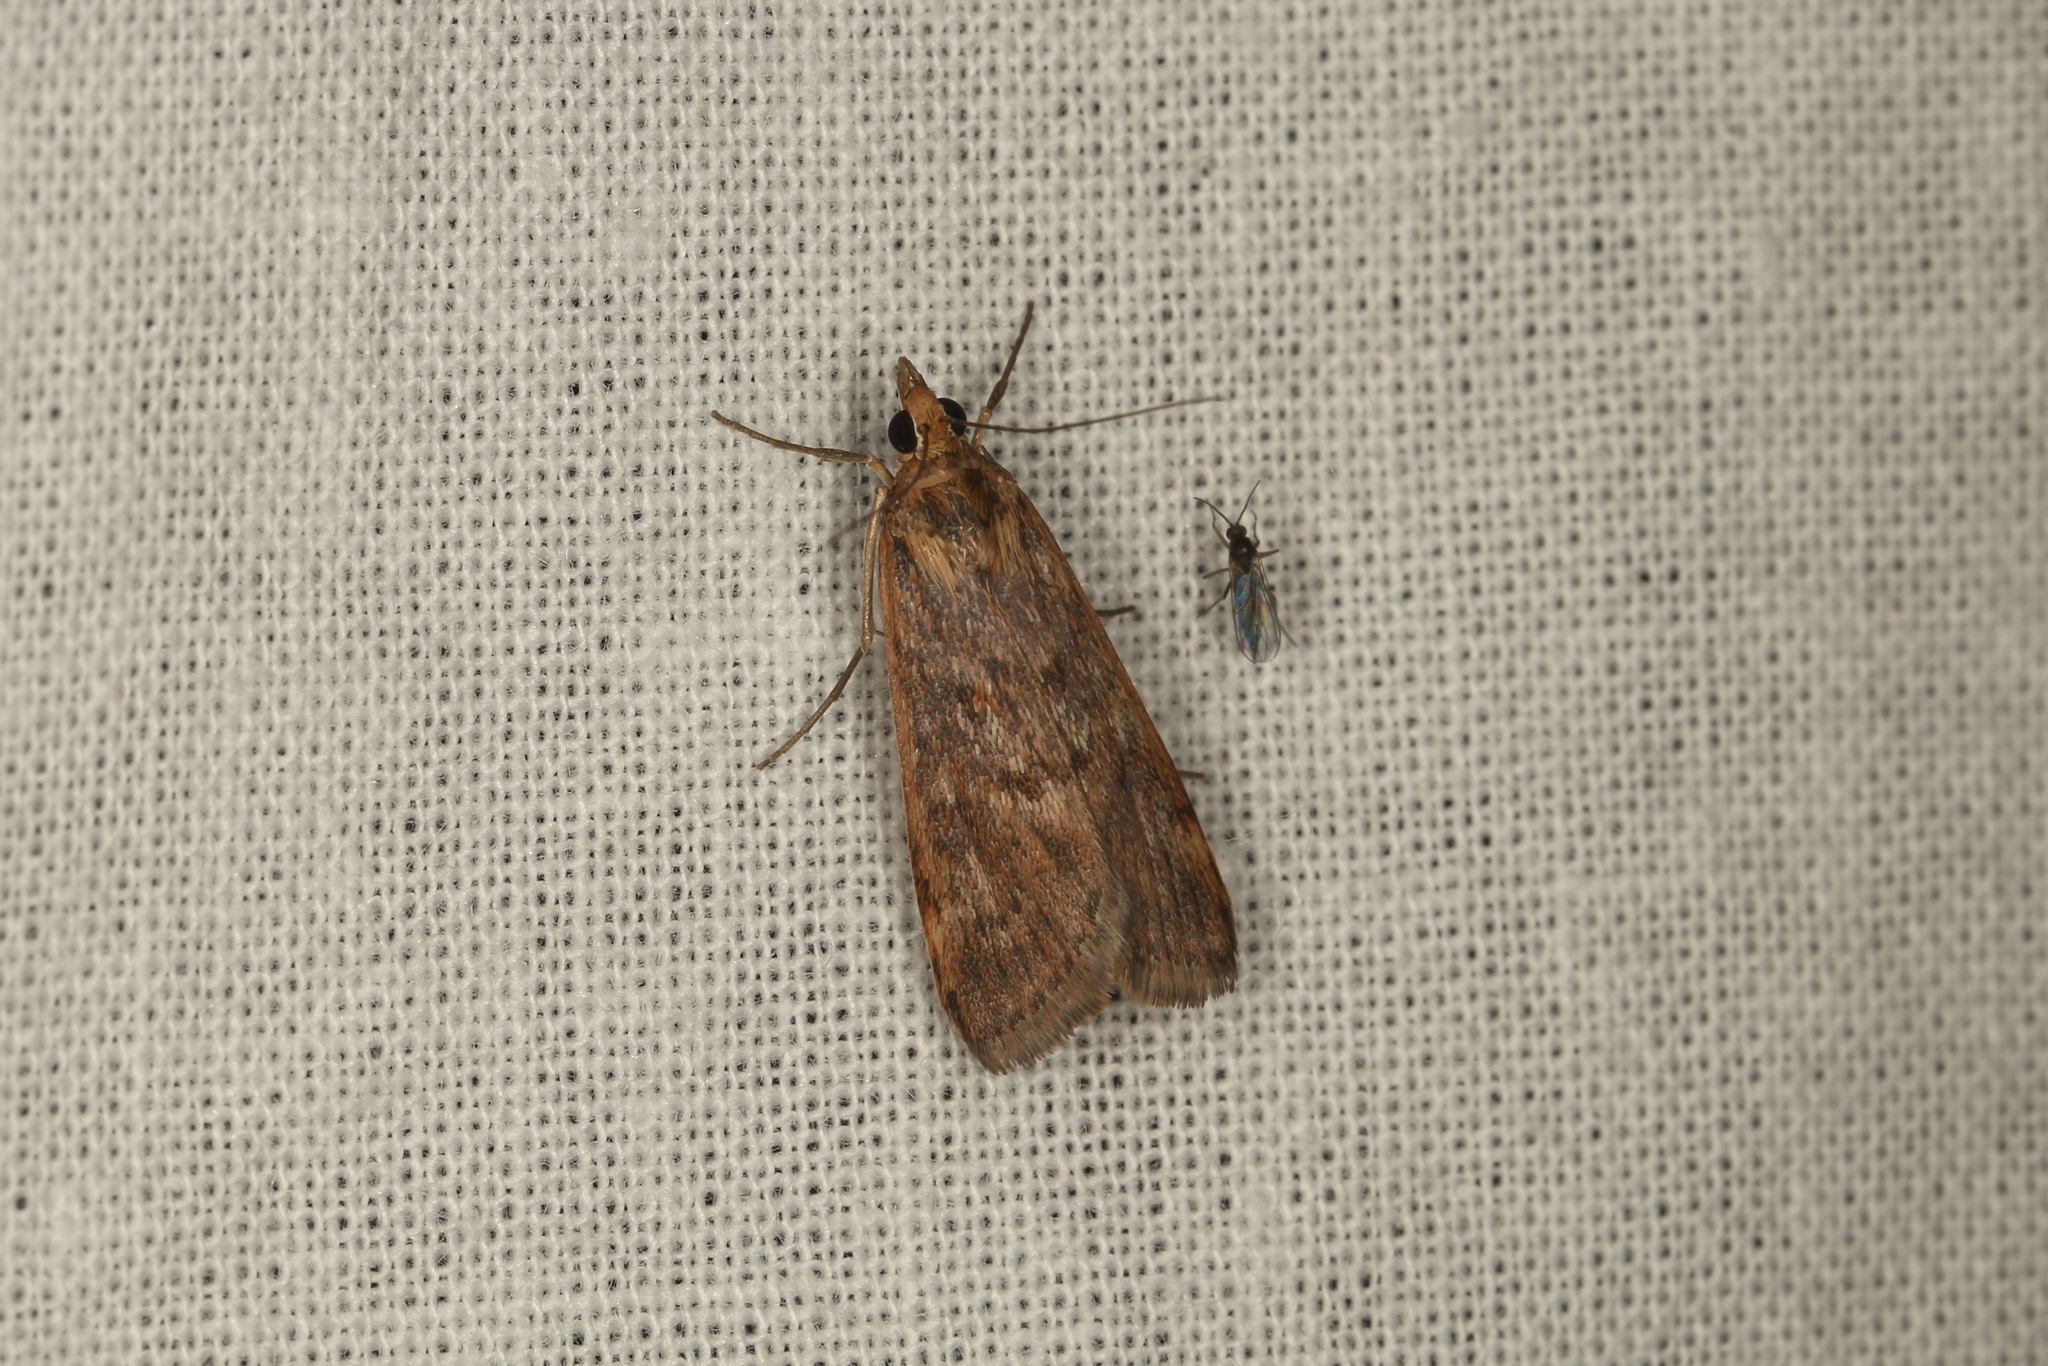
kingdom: Animalia
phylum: Arthropoda
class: Insecta
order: Lepidoptera
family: Crambidae
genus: Achyra
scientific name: Achyra affinitalis
